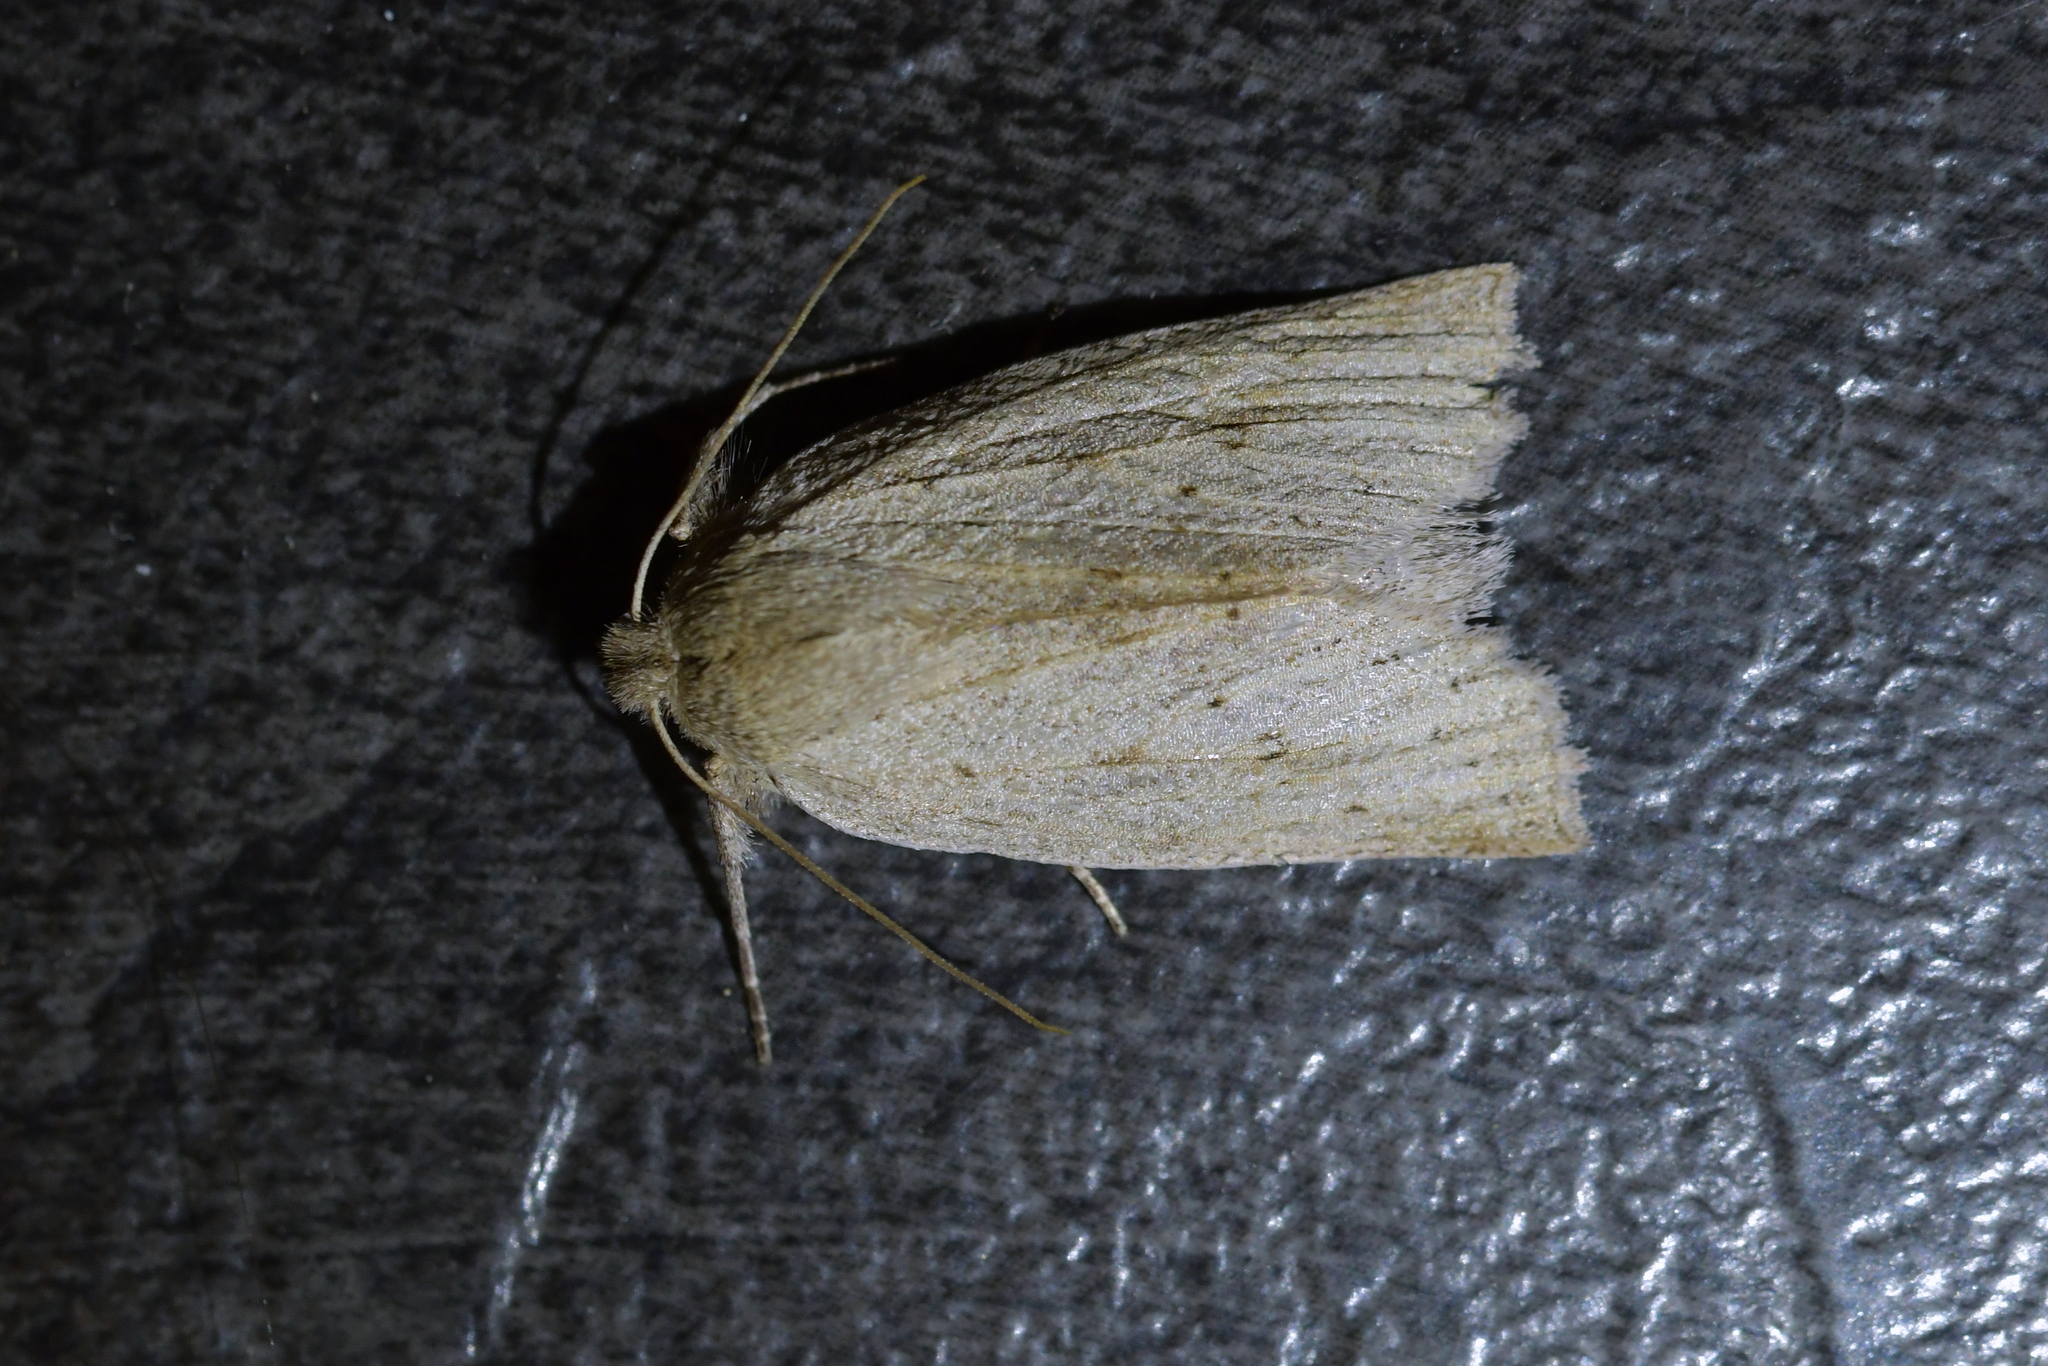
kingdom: Animalia
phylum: Arthropoda
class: Insecta
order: Lepidoptera
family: Geometridae
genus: Declana
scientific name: Declana leptomera
